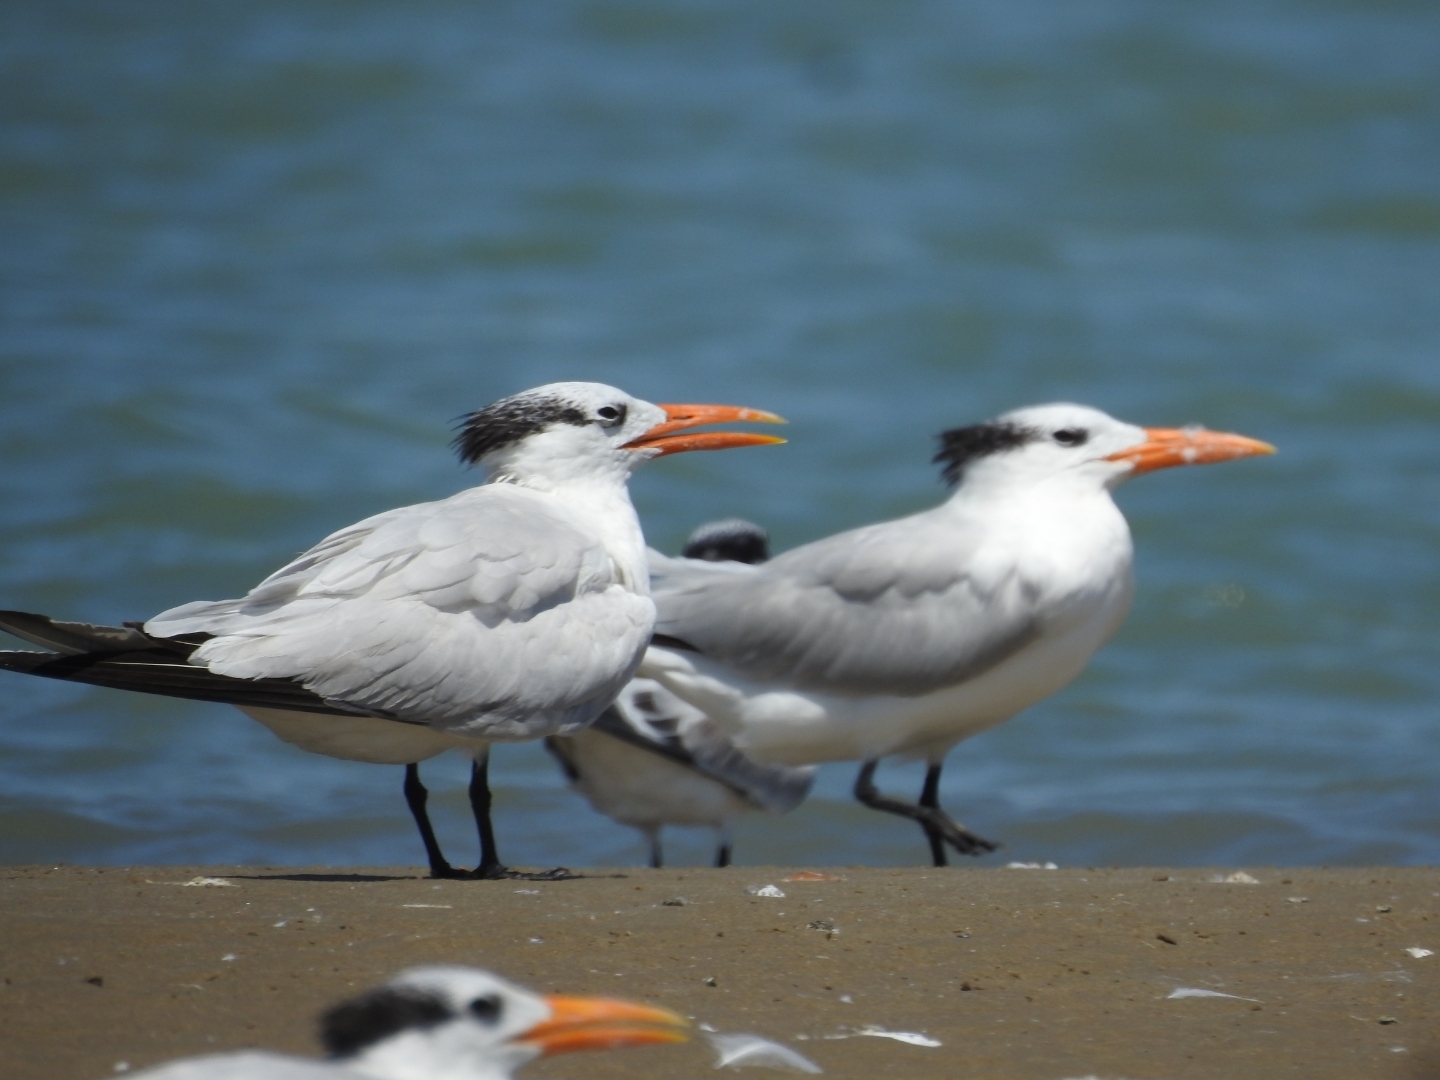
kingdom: Animalia
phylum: Chordata
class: Aves
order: Charadriiformes
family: Laridae
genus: Thalasseus
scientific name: Thalasseus maximus
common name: Royal tern
